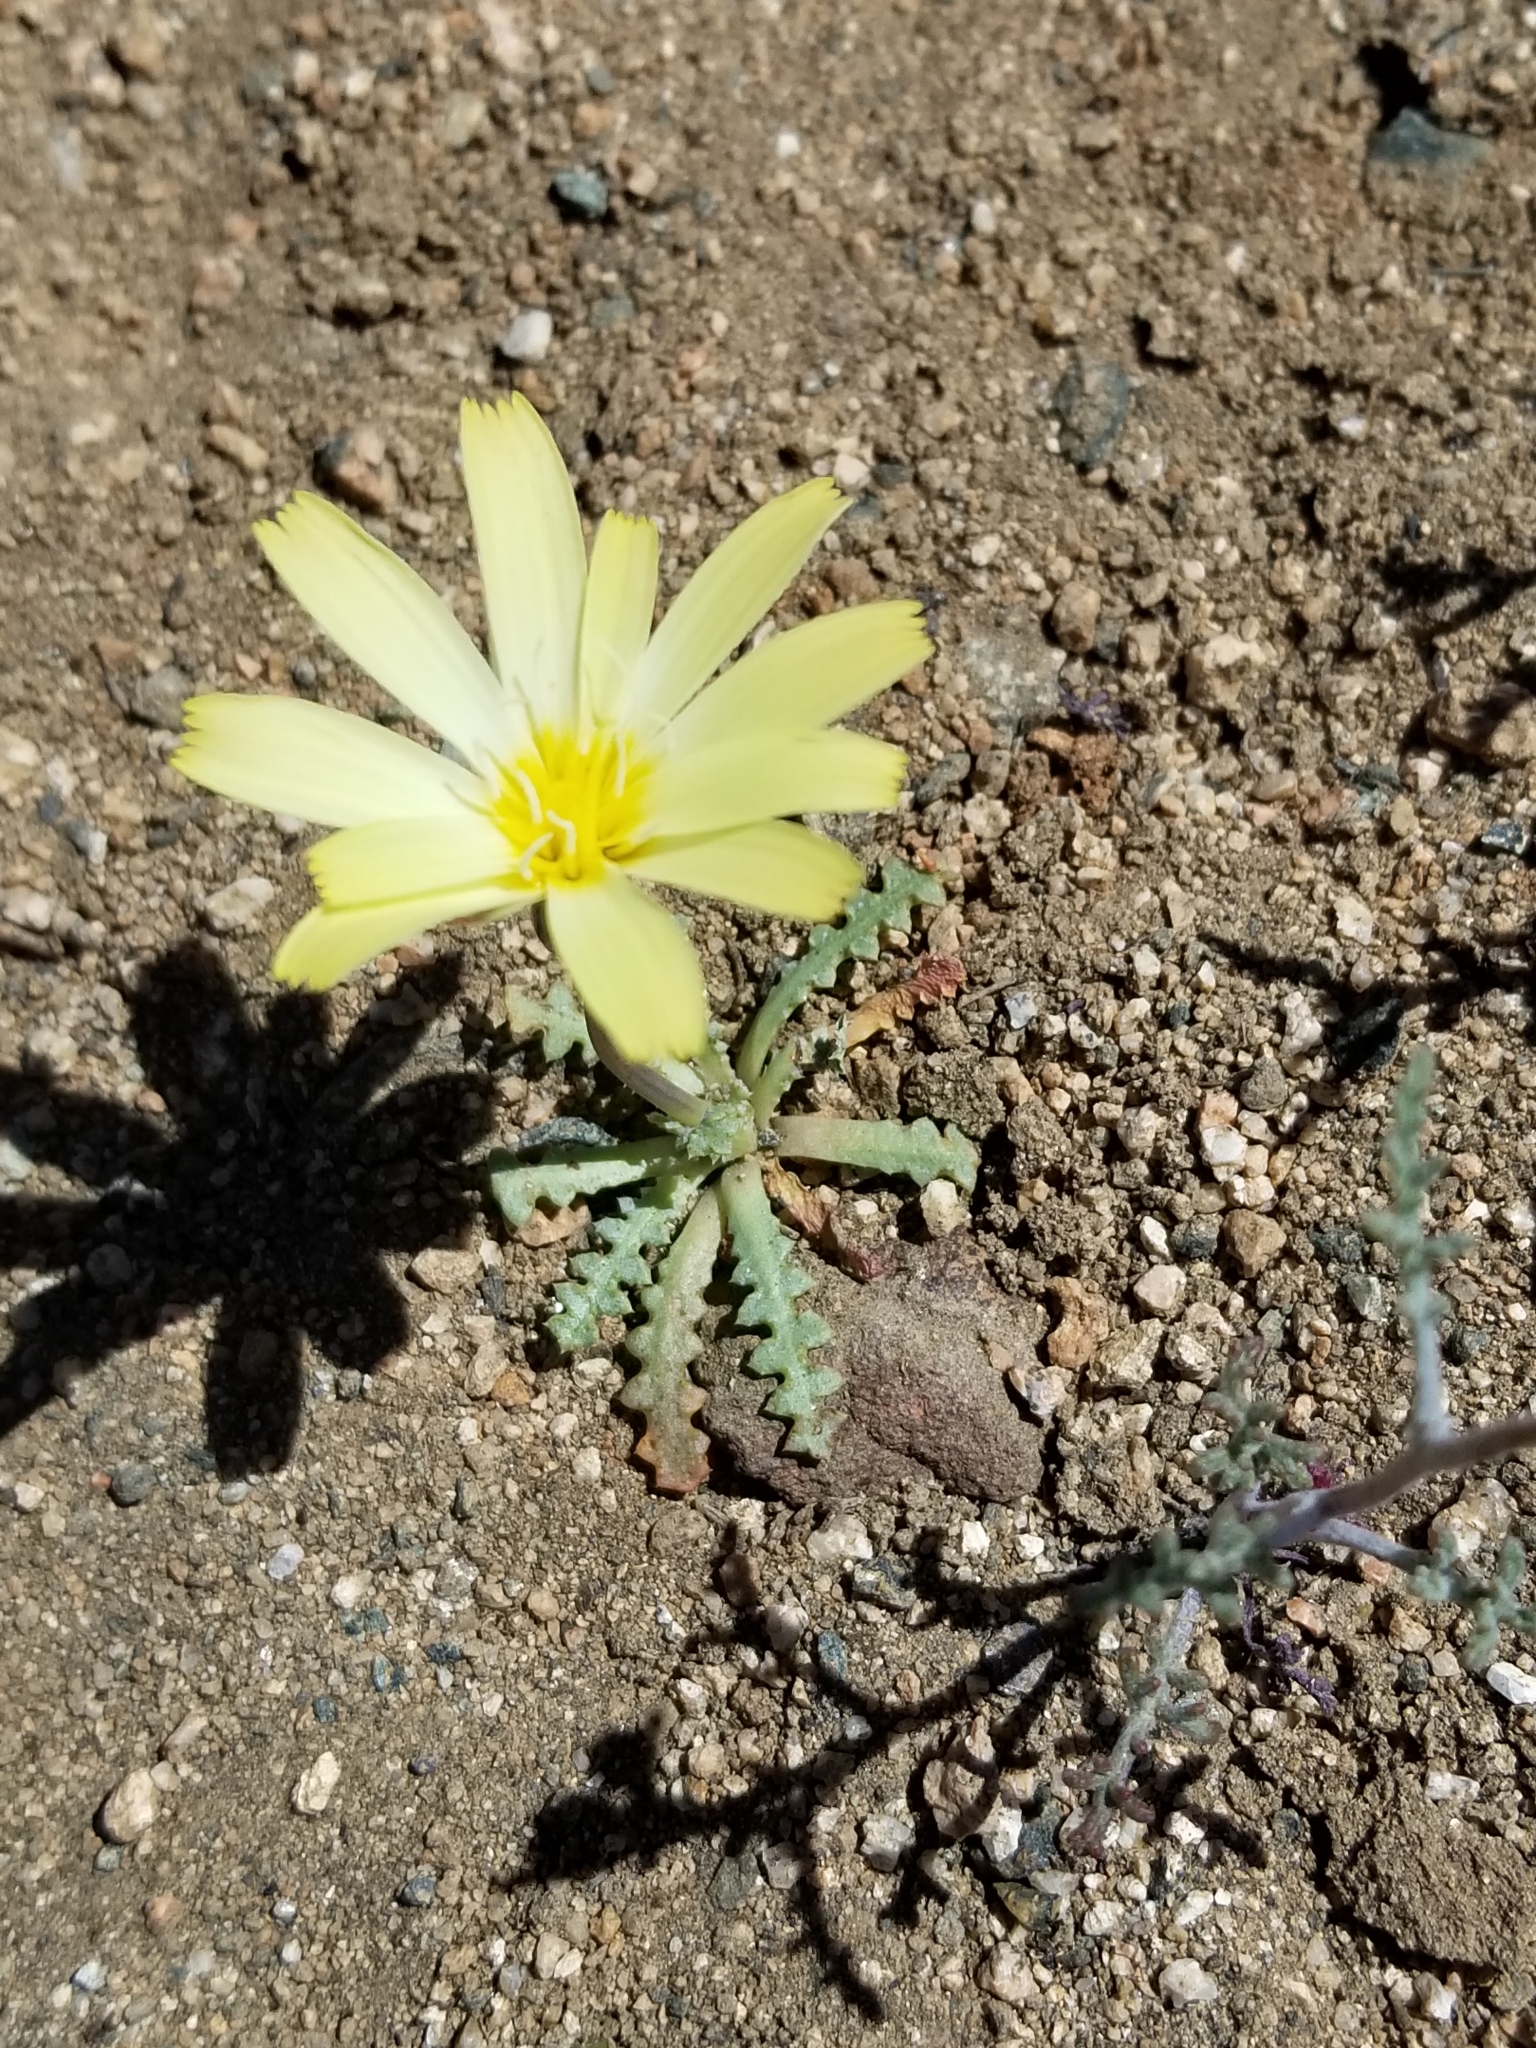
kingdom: Plantae
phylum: Tracheophyta
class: Magnoliopsida
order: Asterales
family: Asteraceae
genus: Anisocoma
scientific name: Anisocoma acaulis
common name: Scalebud
